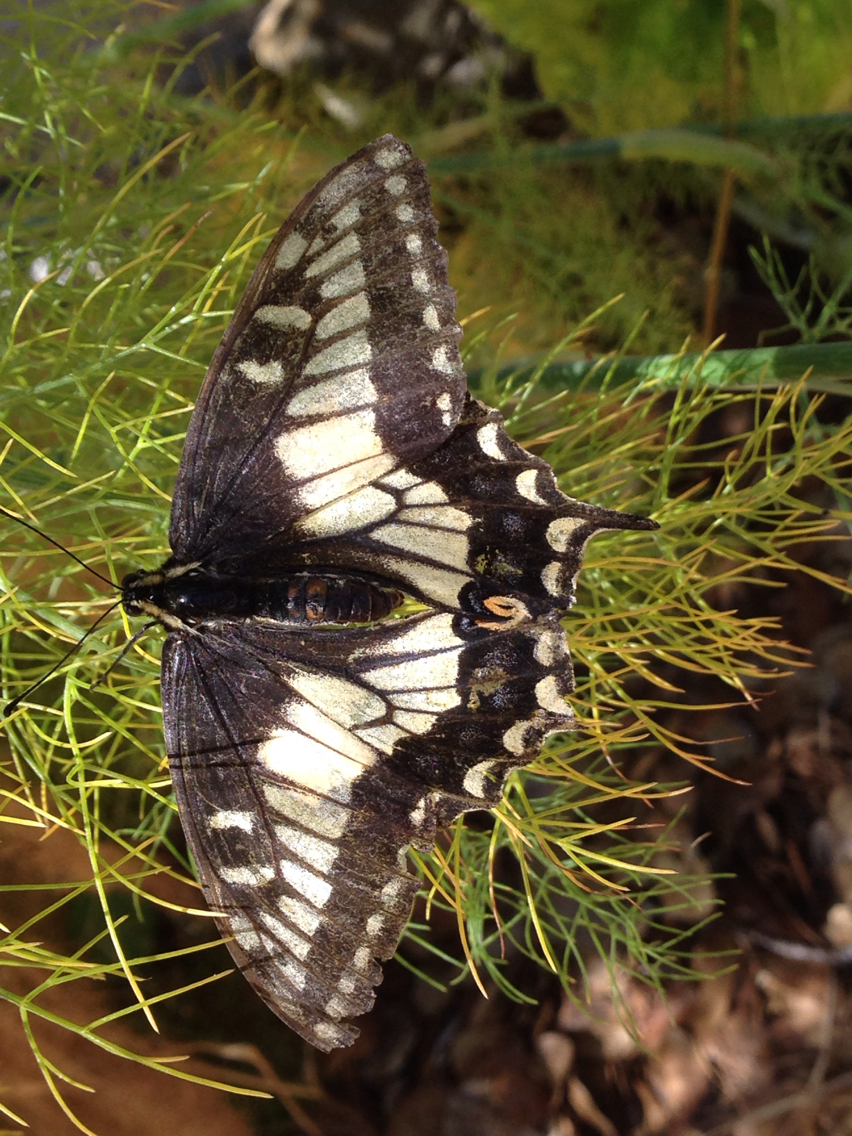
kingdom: Animalia
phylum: Arthropoda
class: Insecta
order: Lepidoptera
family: Papilionidae
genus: Papilio
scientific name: Papilio zelicaon
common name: Anise swallowtail
